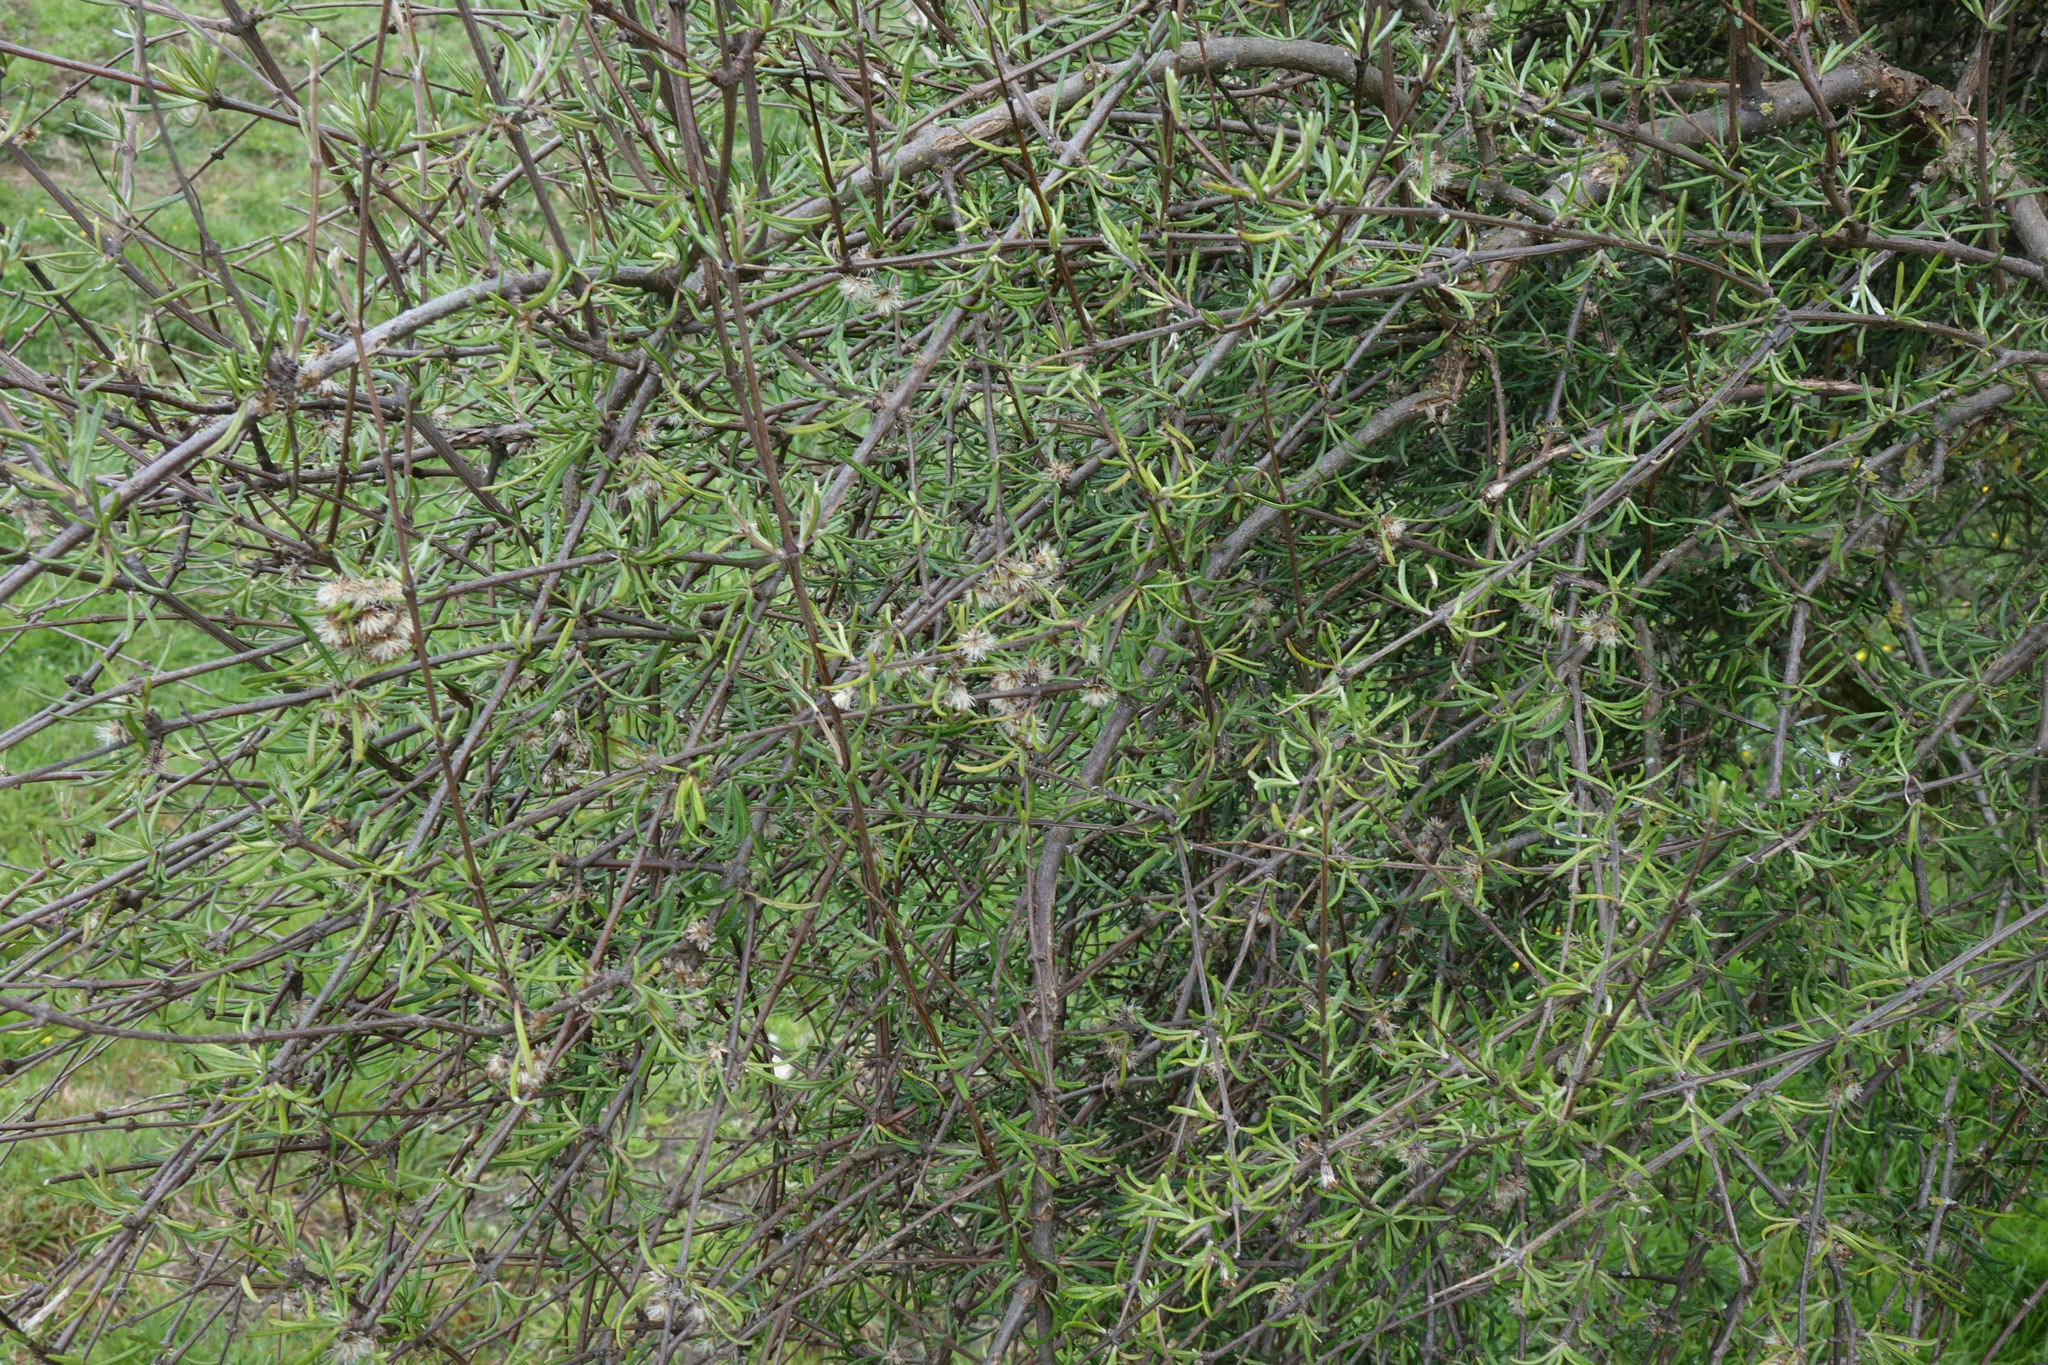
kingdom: Plantae
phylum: Tracheophyta
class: Magnoliopsida
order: Asterales
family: Asteraceae
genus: Olearia
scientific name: Olearia lineata
